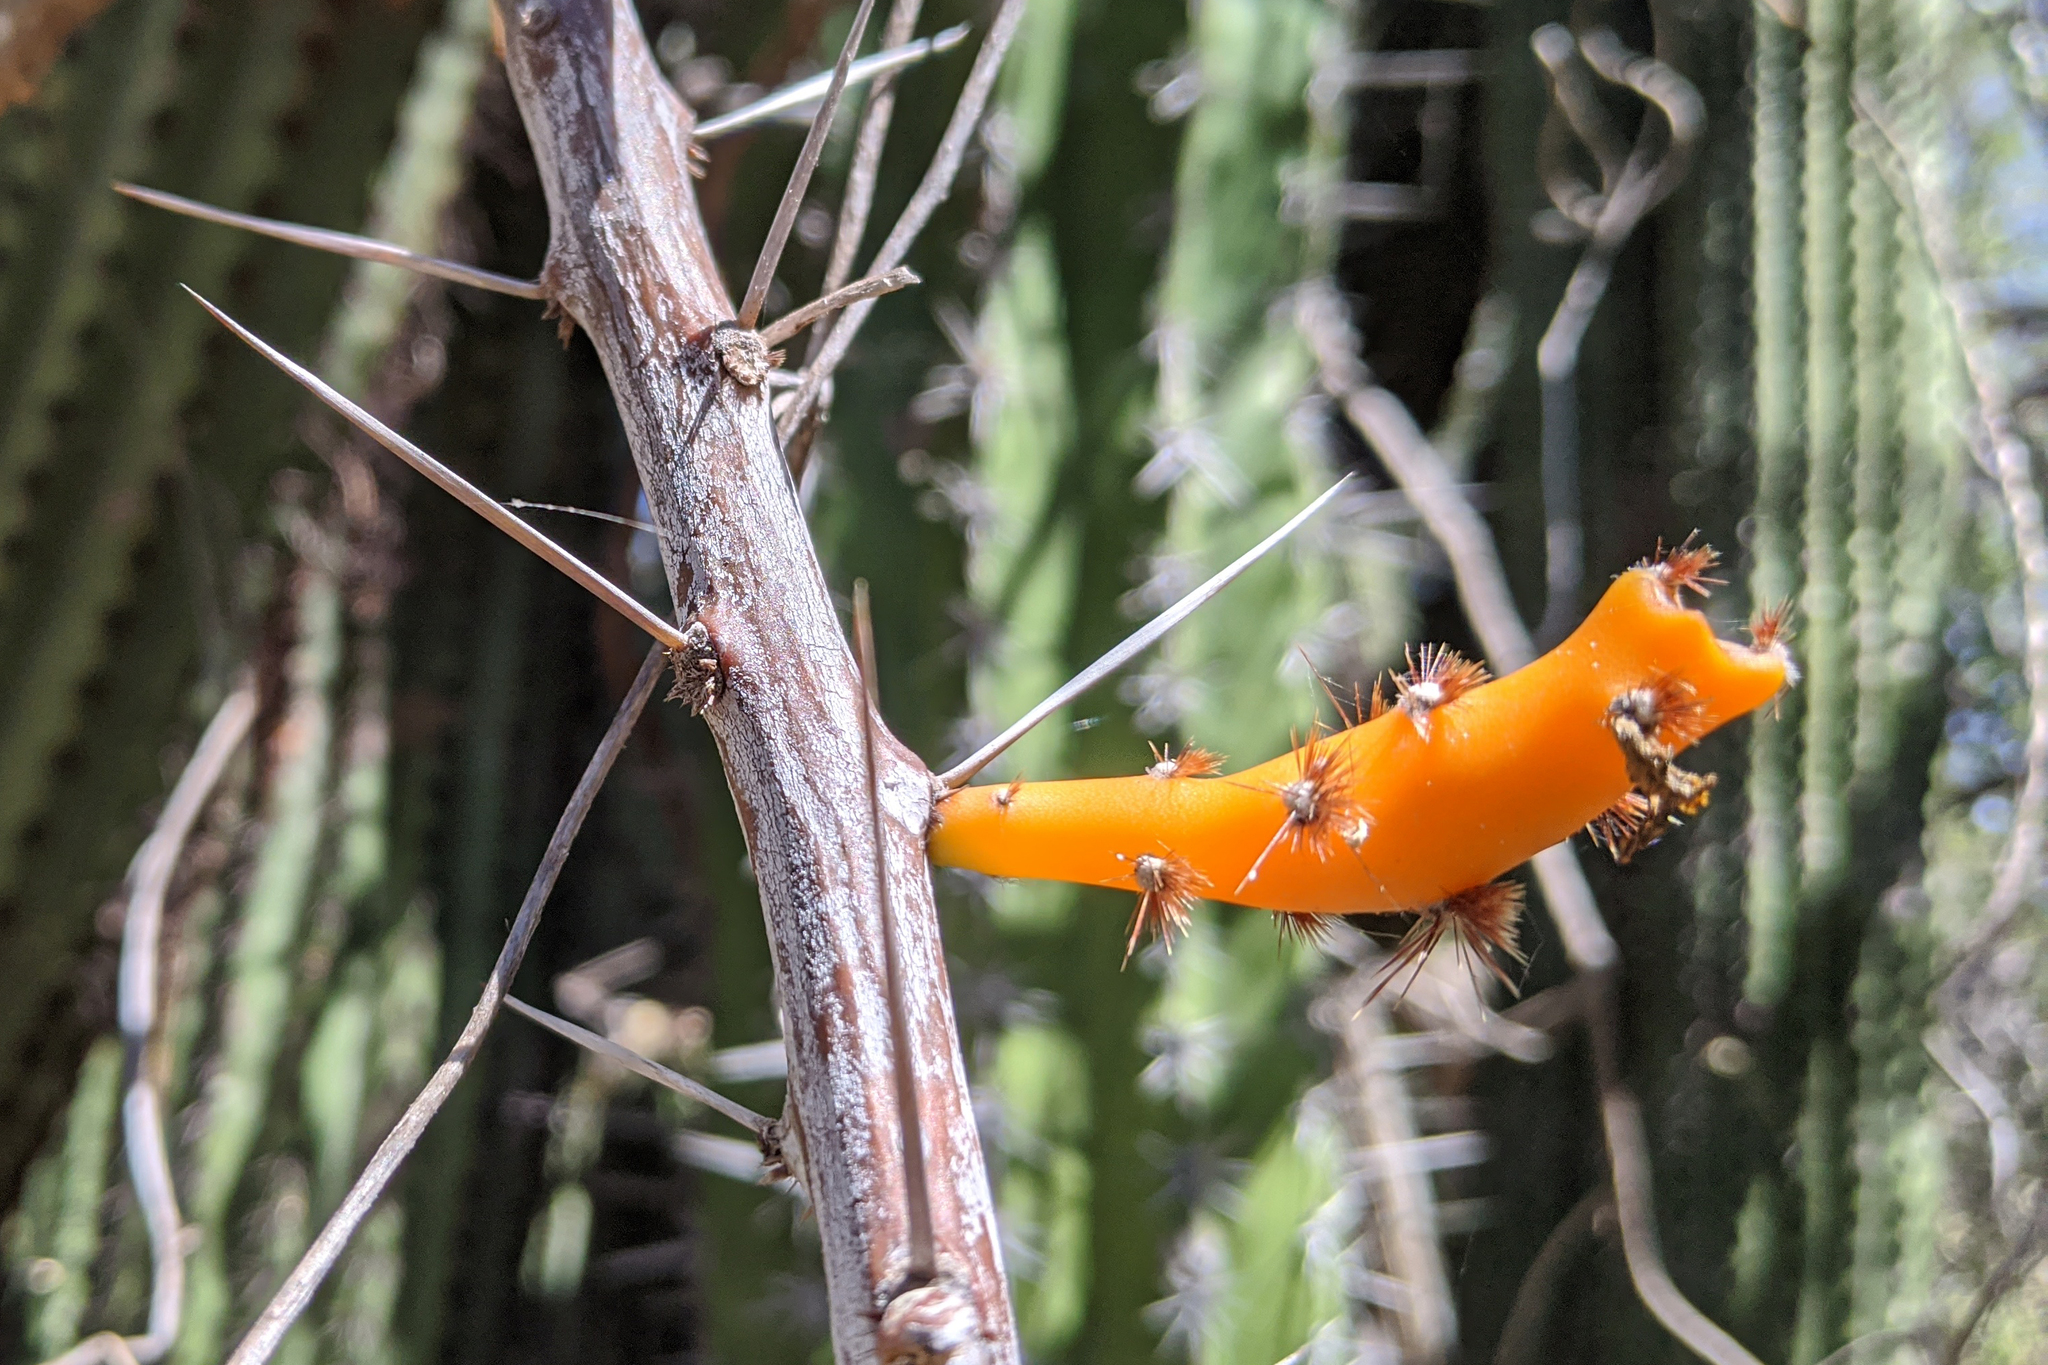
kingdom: Plantae
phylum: Tracheophyta
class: Magnoliopsida
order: Caryophyllales
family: Cactaceae
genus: Pereskiopsis
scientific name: Pereskiopsis porteri
